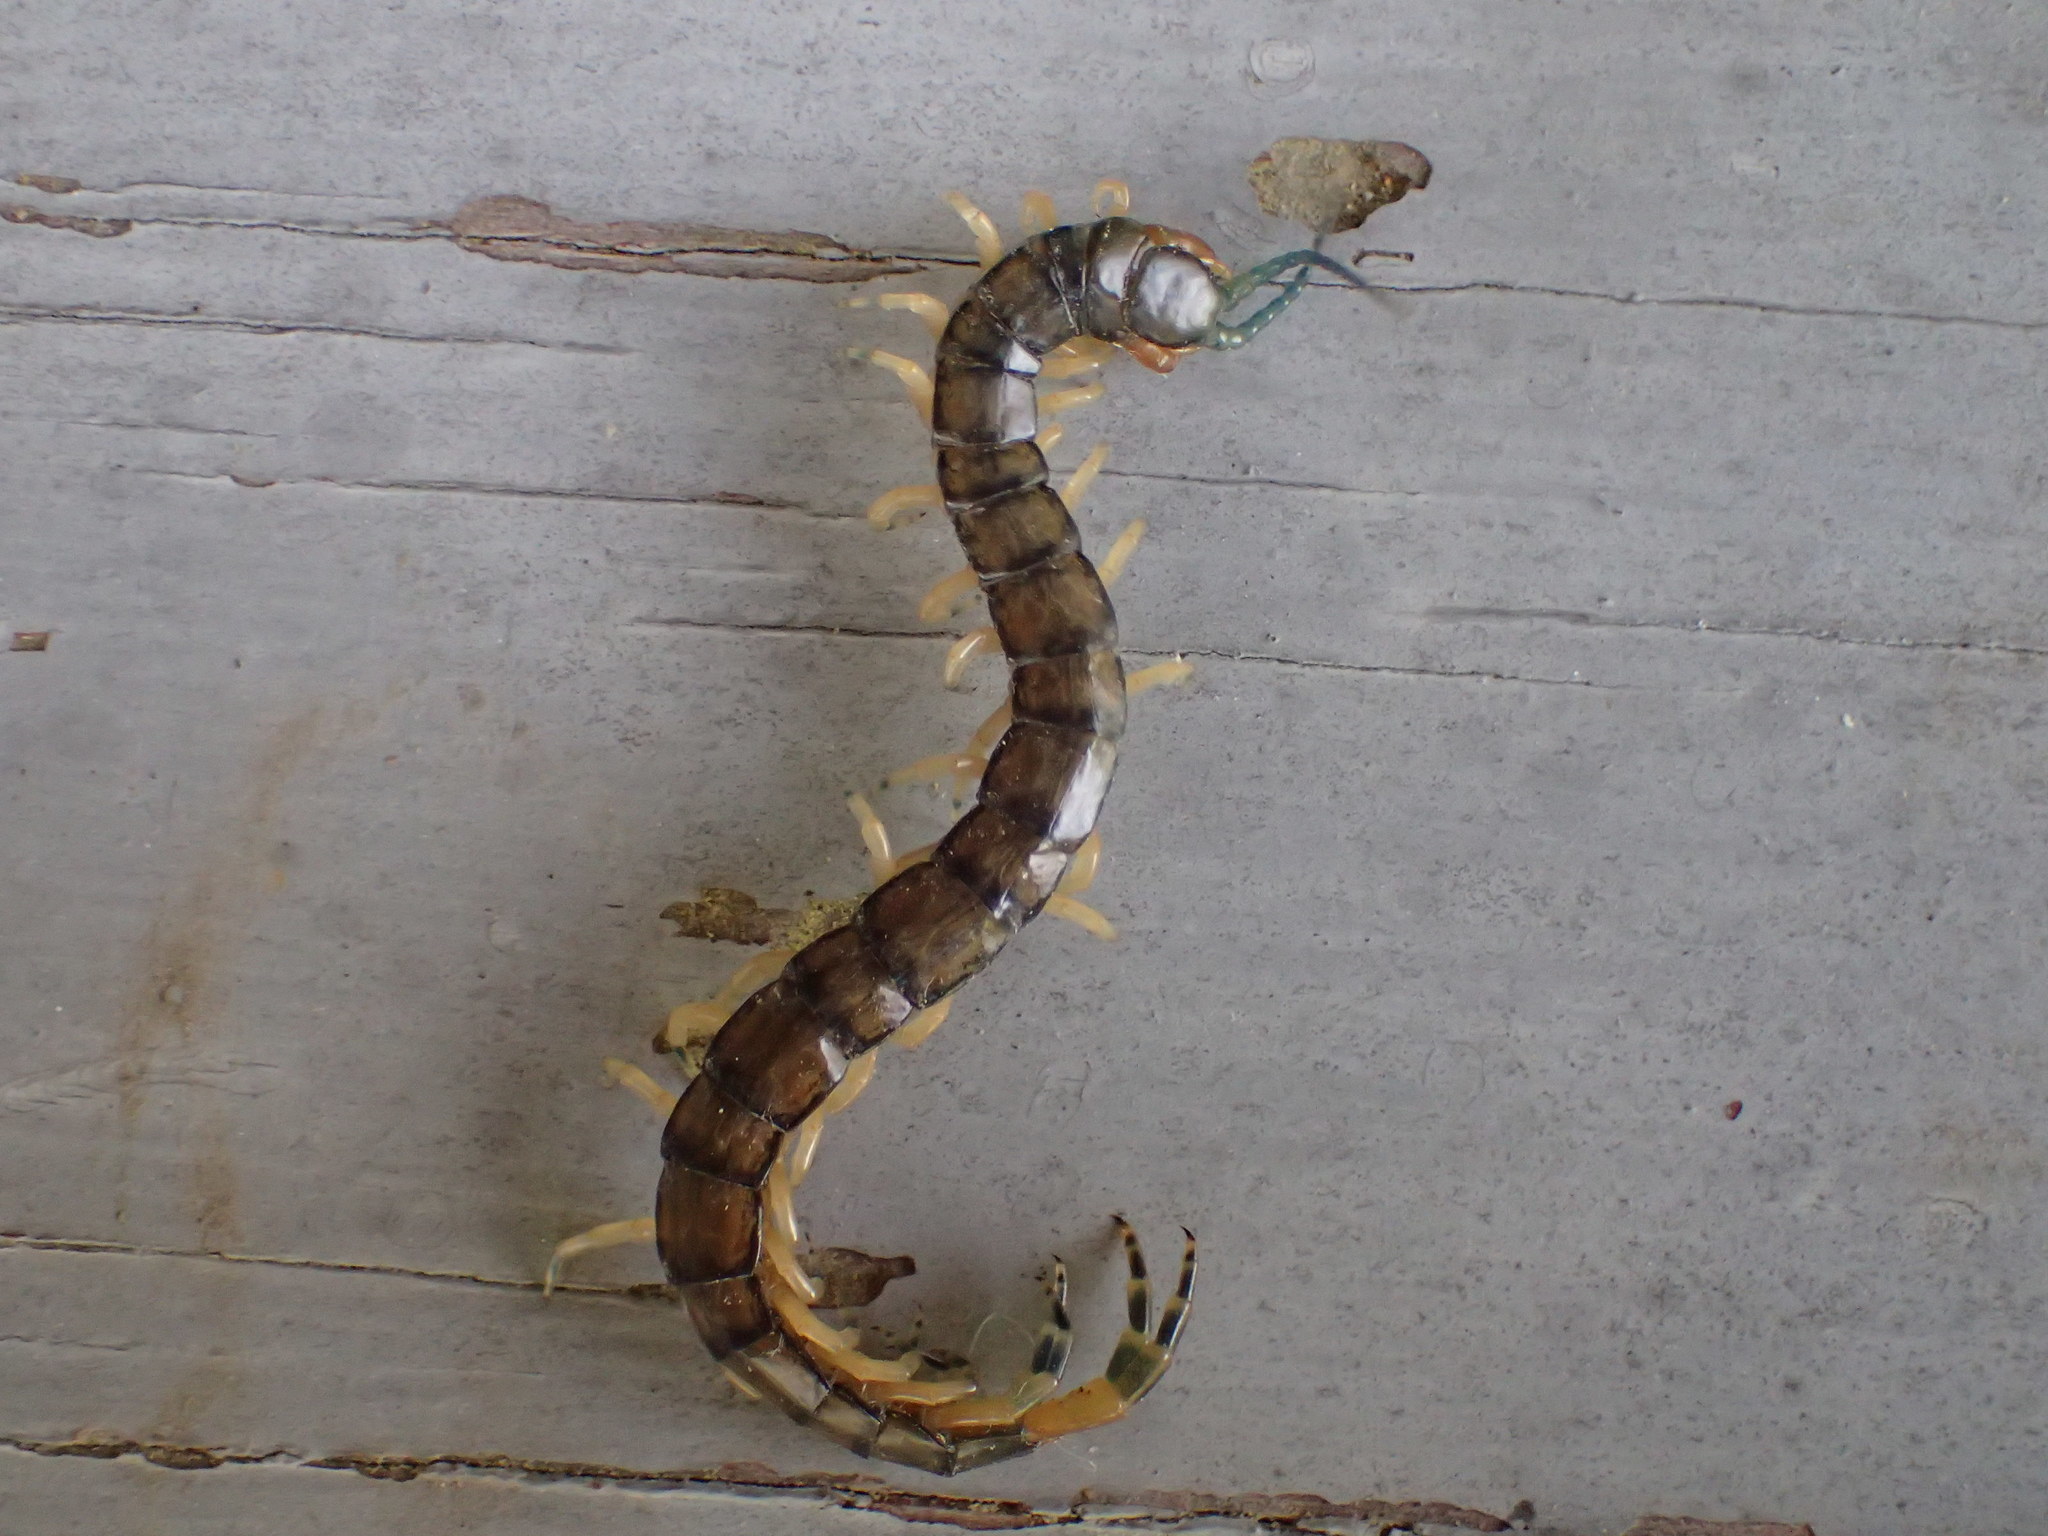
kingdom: Animalia
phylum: Arthropoda
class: Chilopoda
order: Scolopendromorpha
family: Scolopendridae
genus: Hemiscolopendra
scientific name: Hemiscolopendra marginata
